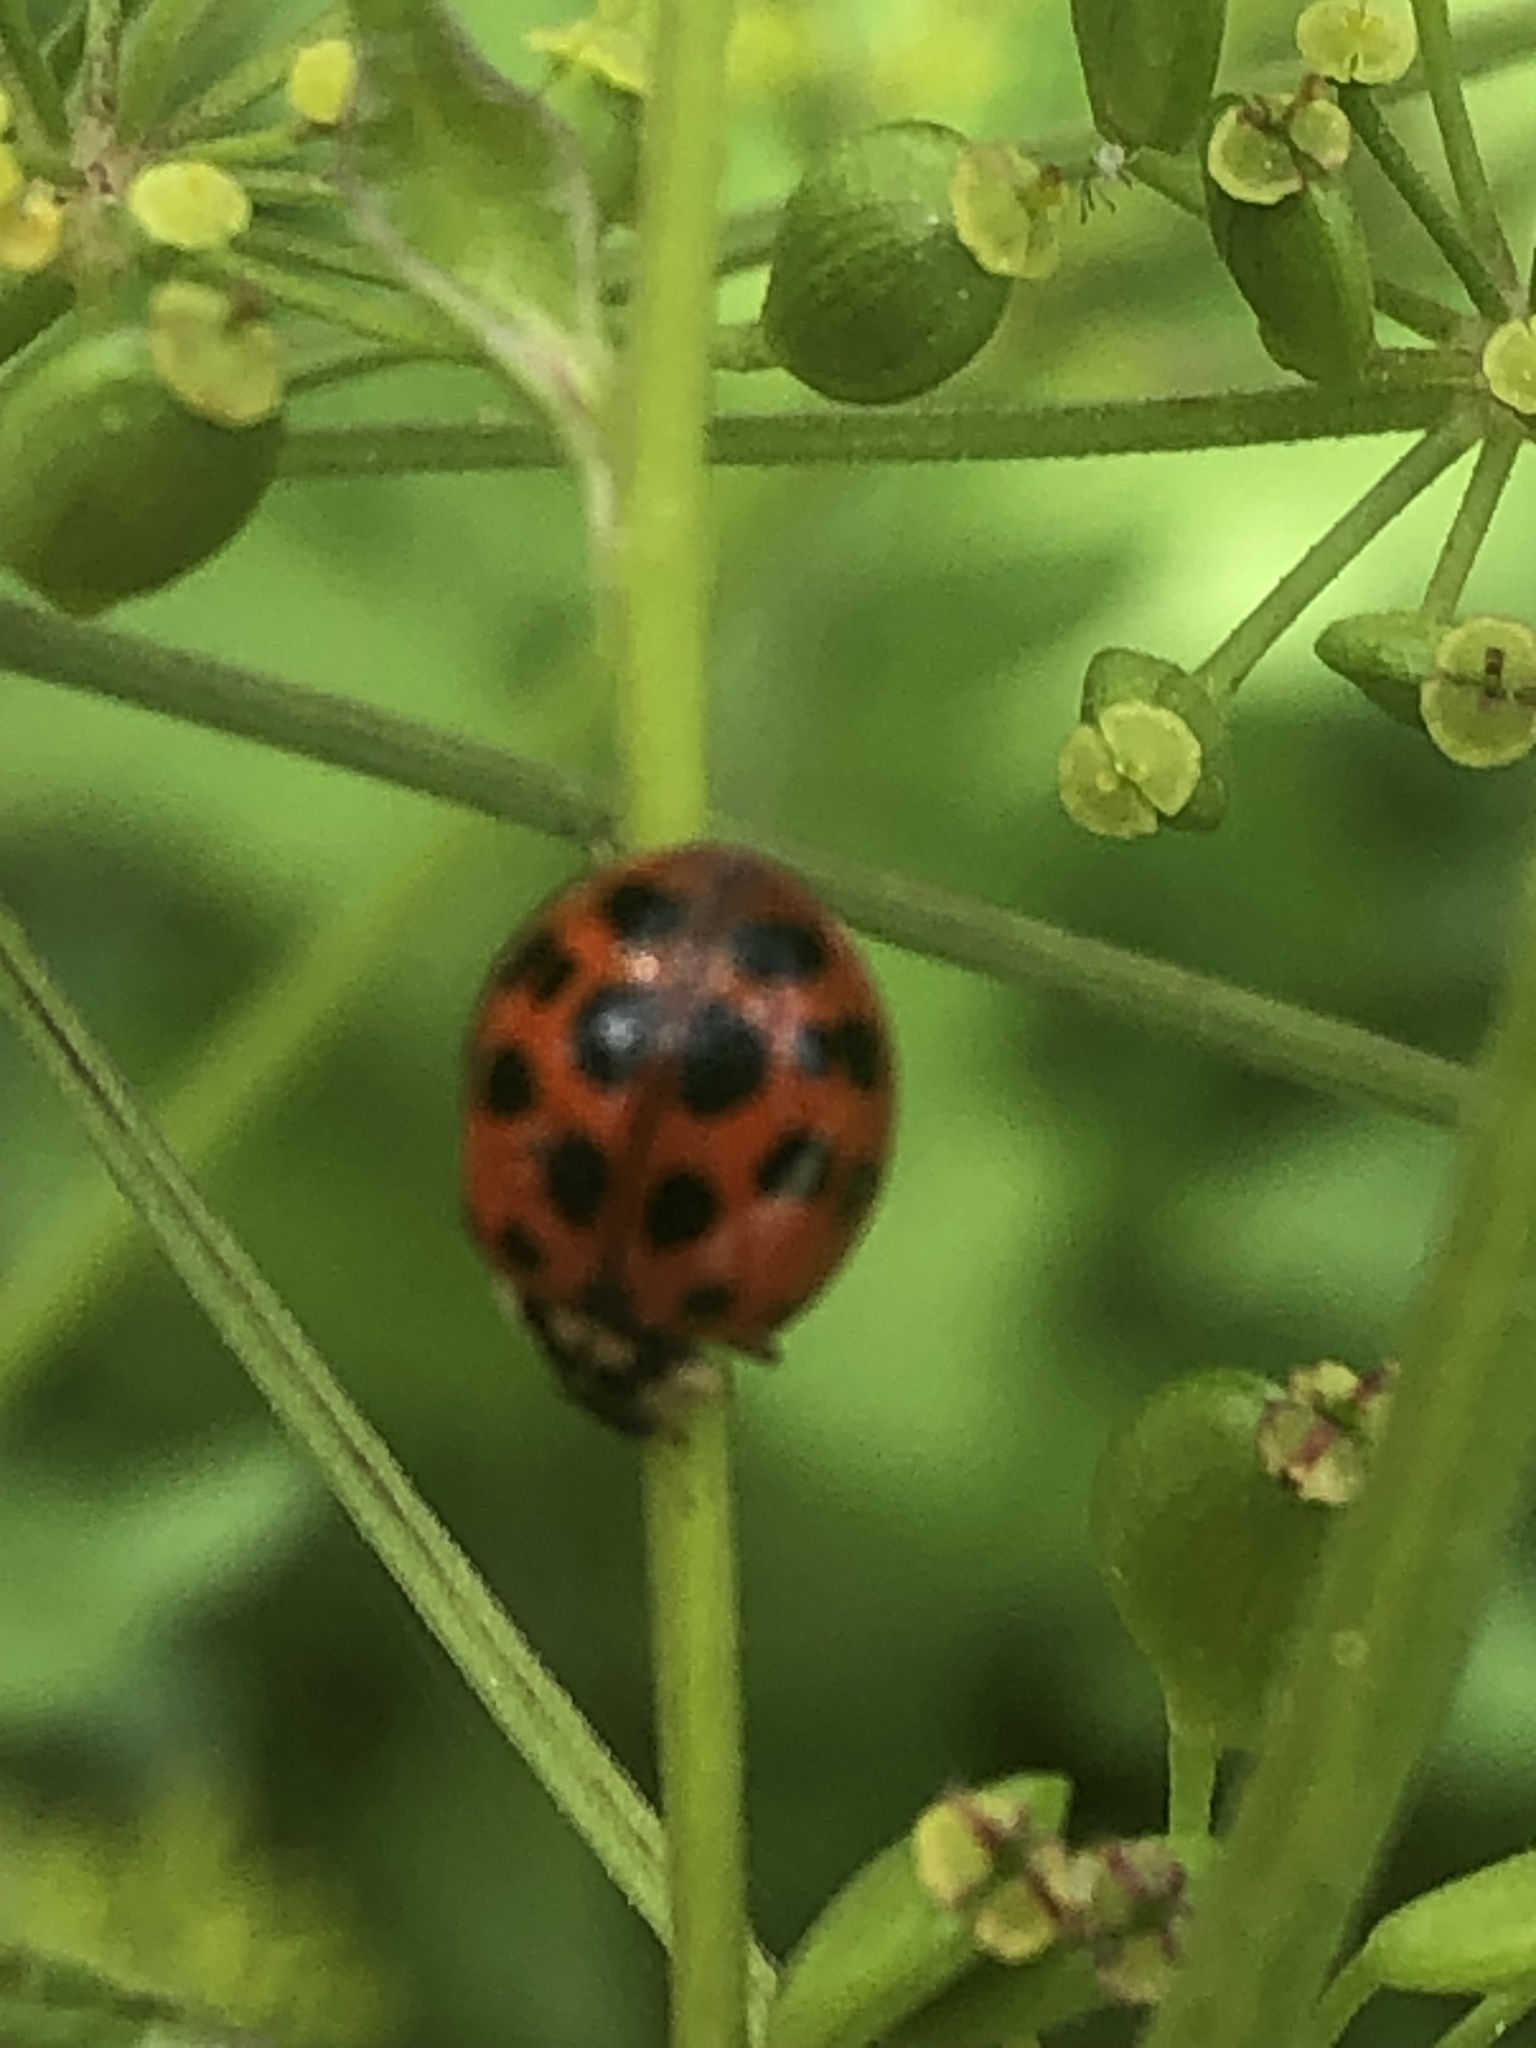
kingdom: Animalia
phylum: Arthropoda
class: Insecta
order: Coleoptera
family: Coccinellidae
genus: Harmonia
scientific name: Harmonia axyridis
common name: Harlequin ladybird
